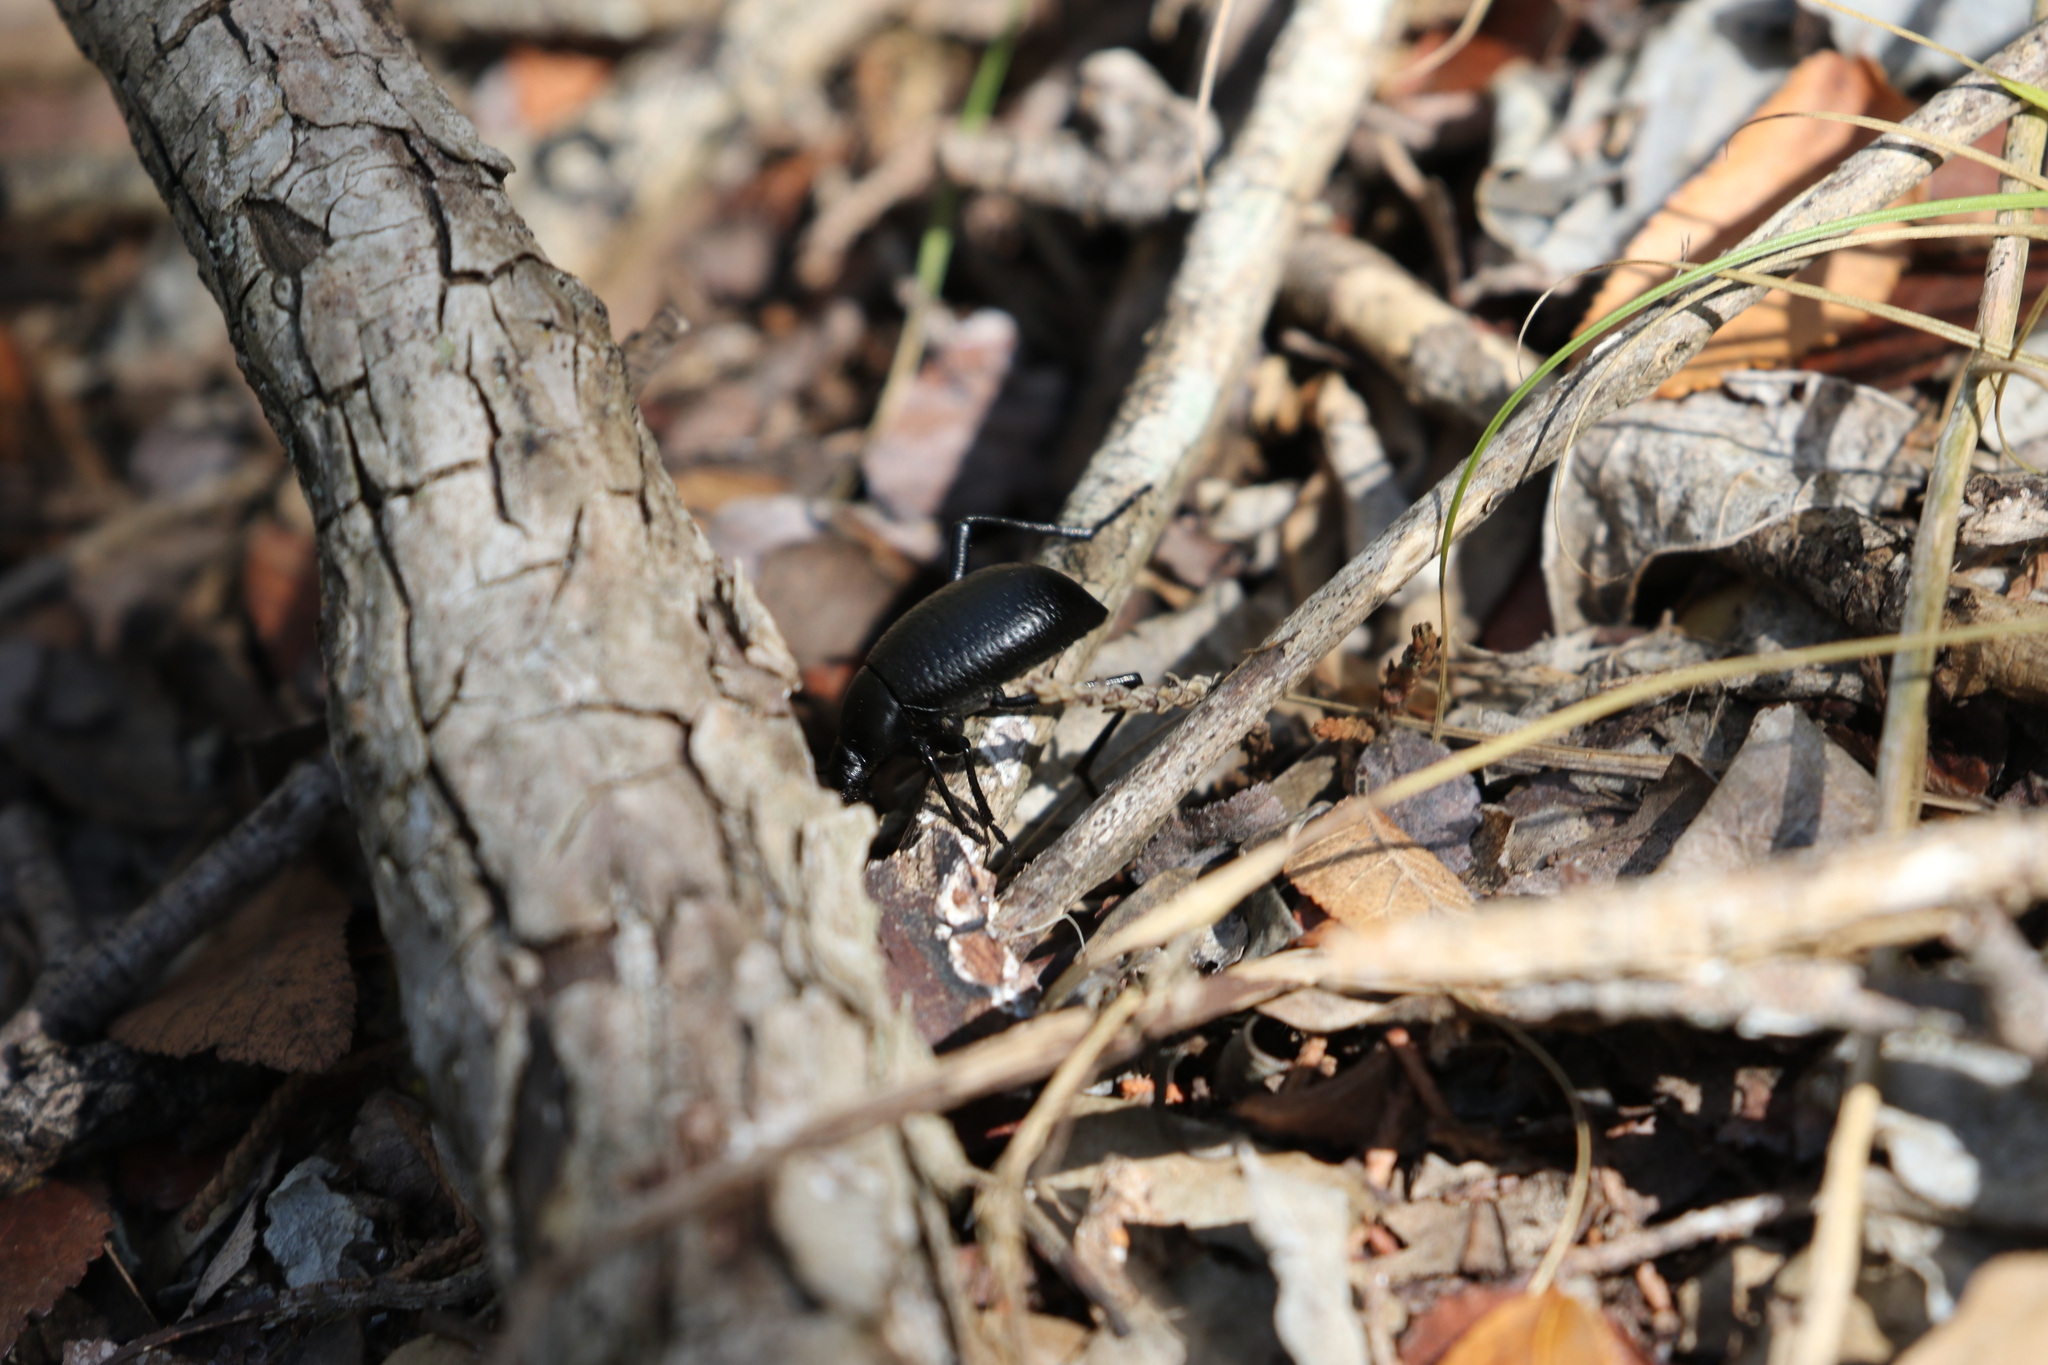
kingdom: Animalia
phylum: Arthropoda
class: Insecta
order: Coleoptera
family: Tenebrionidae
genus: Eleodes
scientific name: Eleodes goryi
